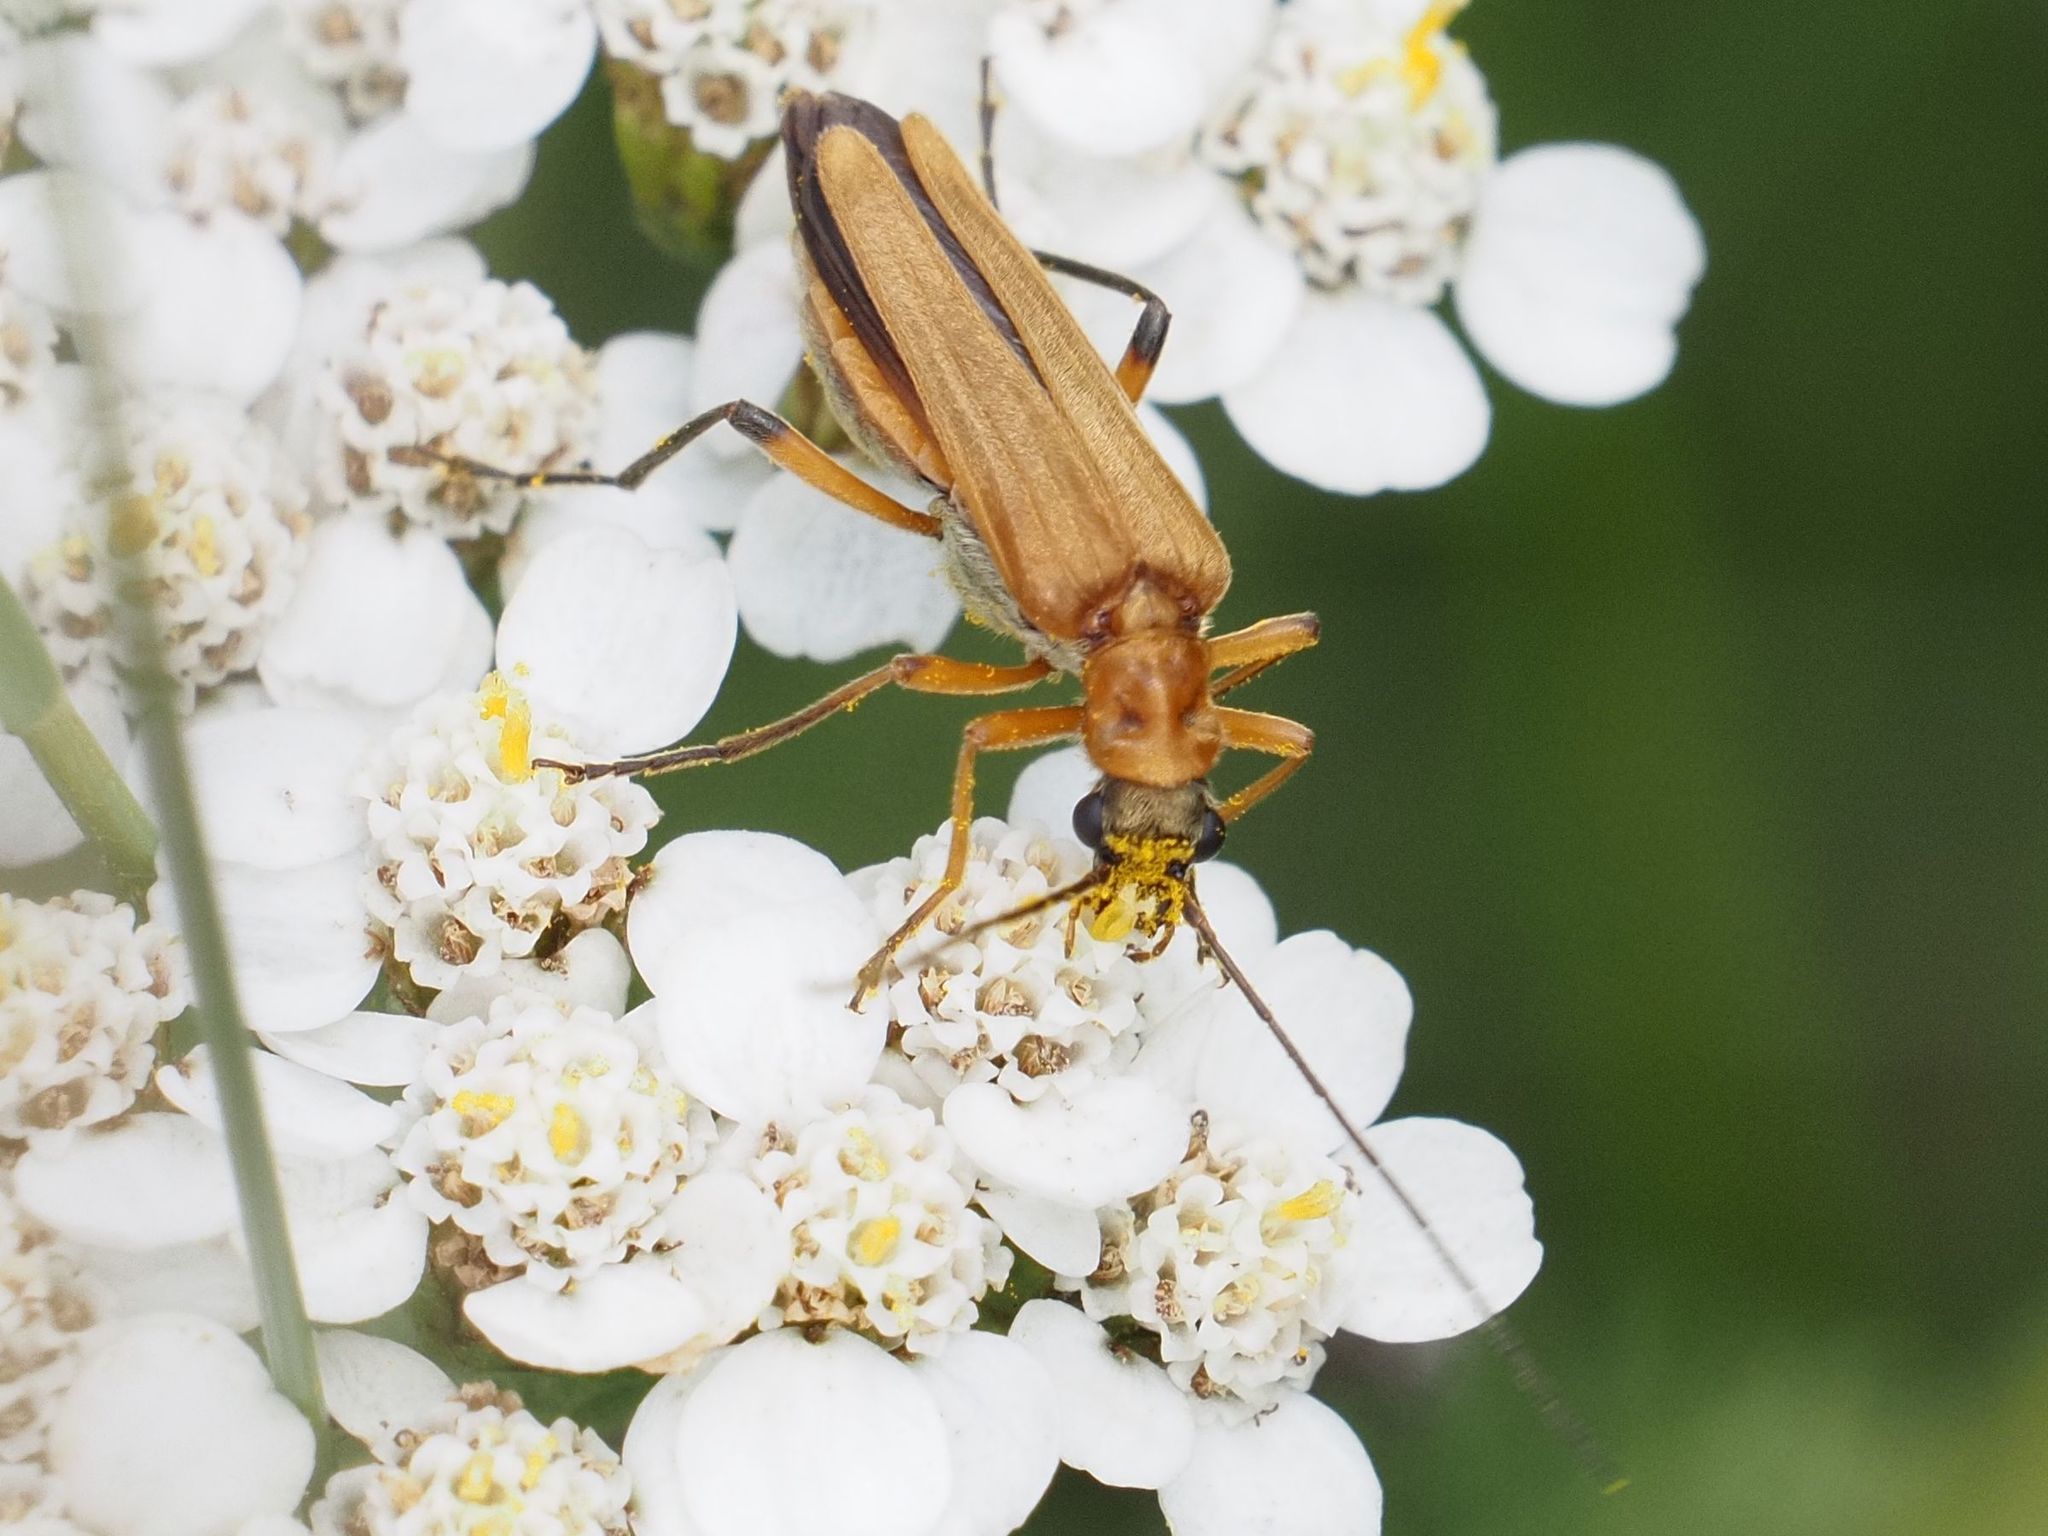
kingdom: Animalia
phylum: Arthropoda
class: Insecta
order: Coleoptera
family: Oedemeridae
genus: Oedemera
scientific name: Oedemera podagrariae
